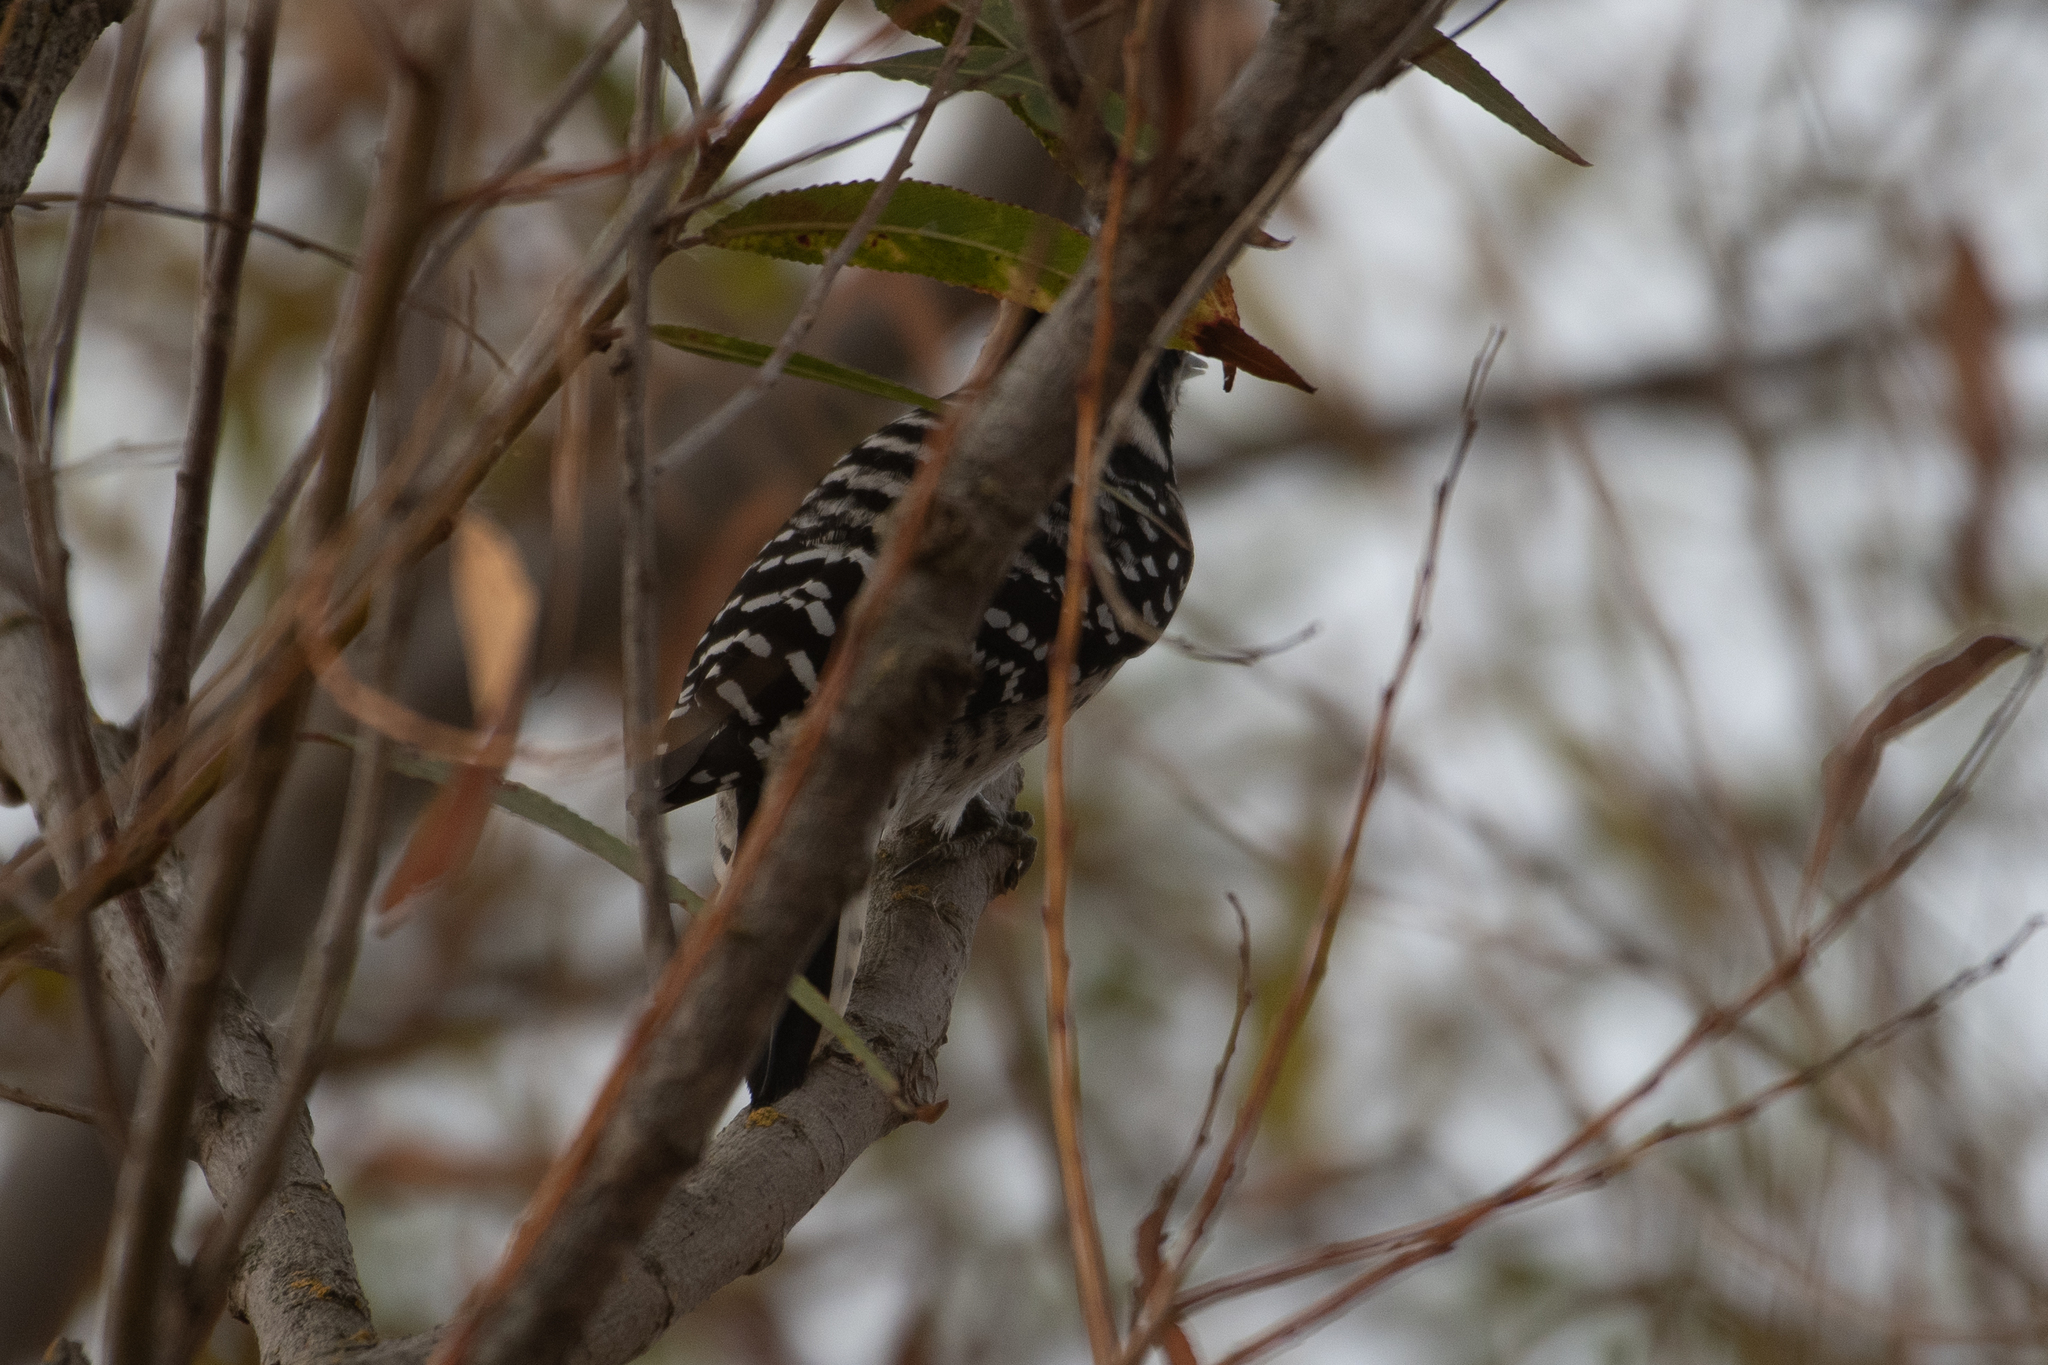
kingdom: Animalia
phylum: Chordata
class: Aves
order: Piciformes
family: Picidae
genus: Dryobates
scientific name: Dryobates nuttallii
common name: Nuttall's woodpecker
